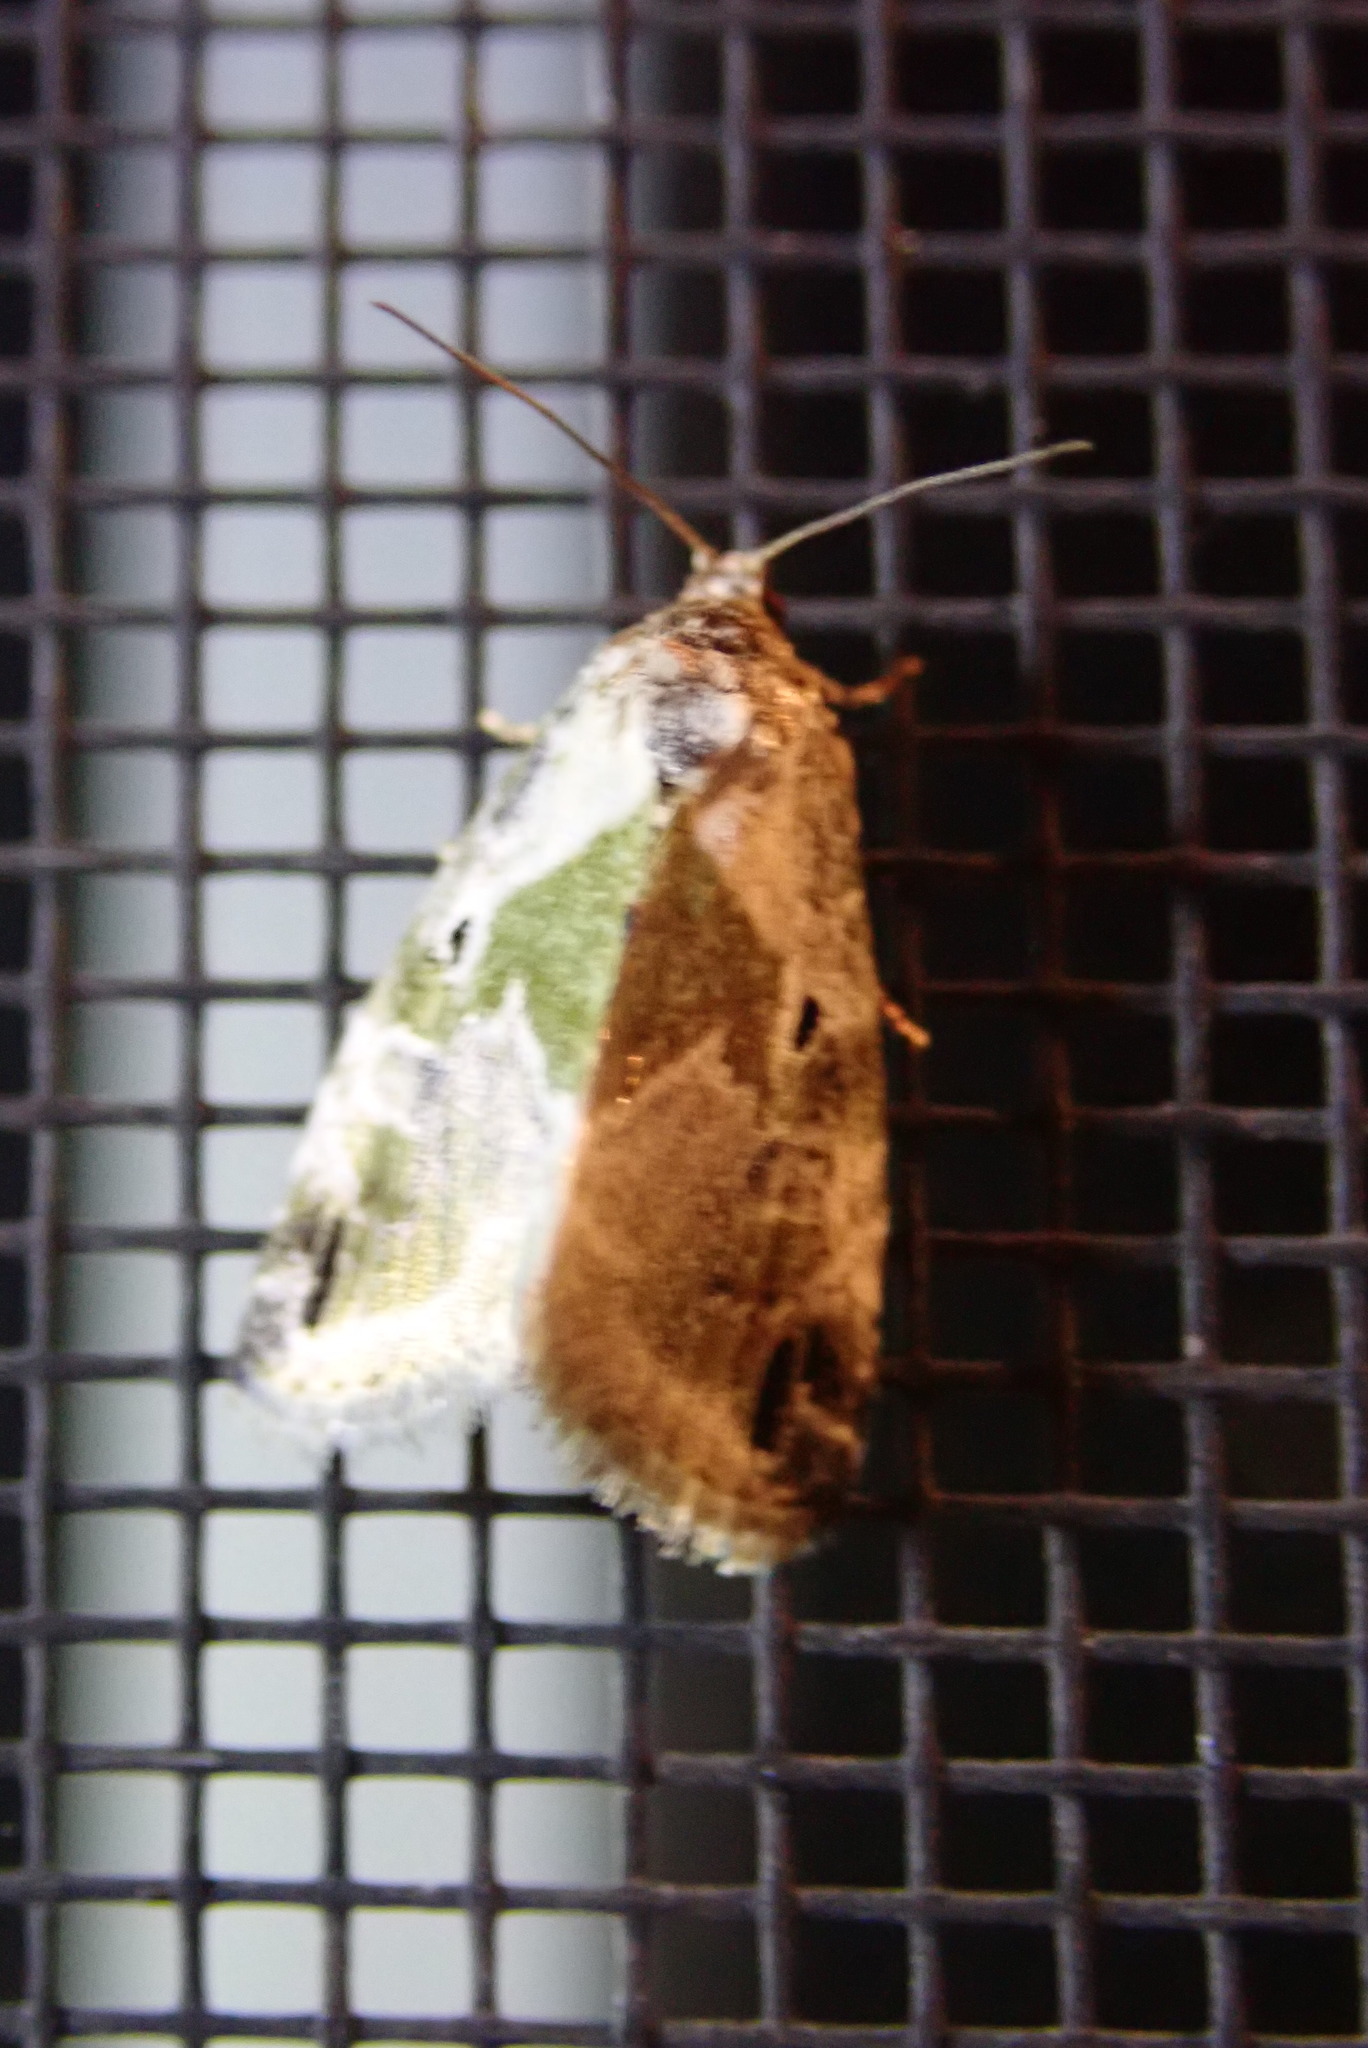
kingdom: Animalia
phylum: Arthropoda
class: Insecta
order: Lepidoptera
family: Noctuidae
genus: Maliattha
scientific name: Maliattha synochitis
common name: Black-dotted glyph
